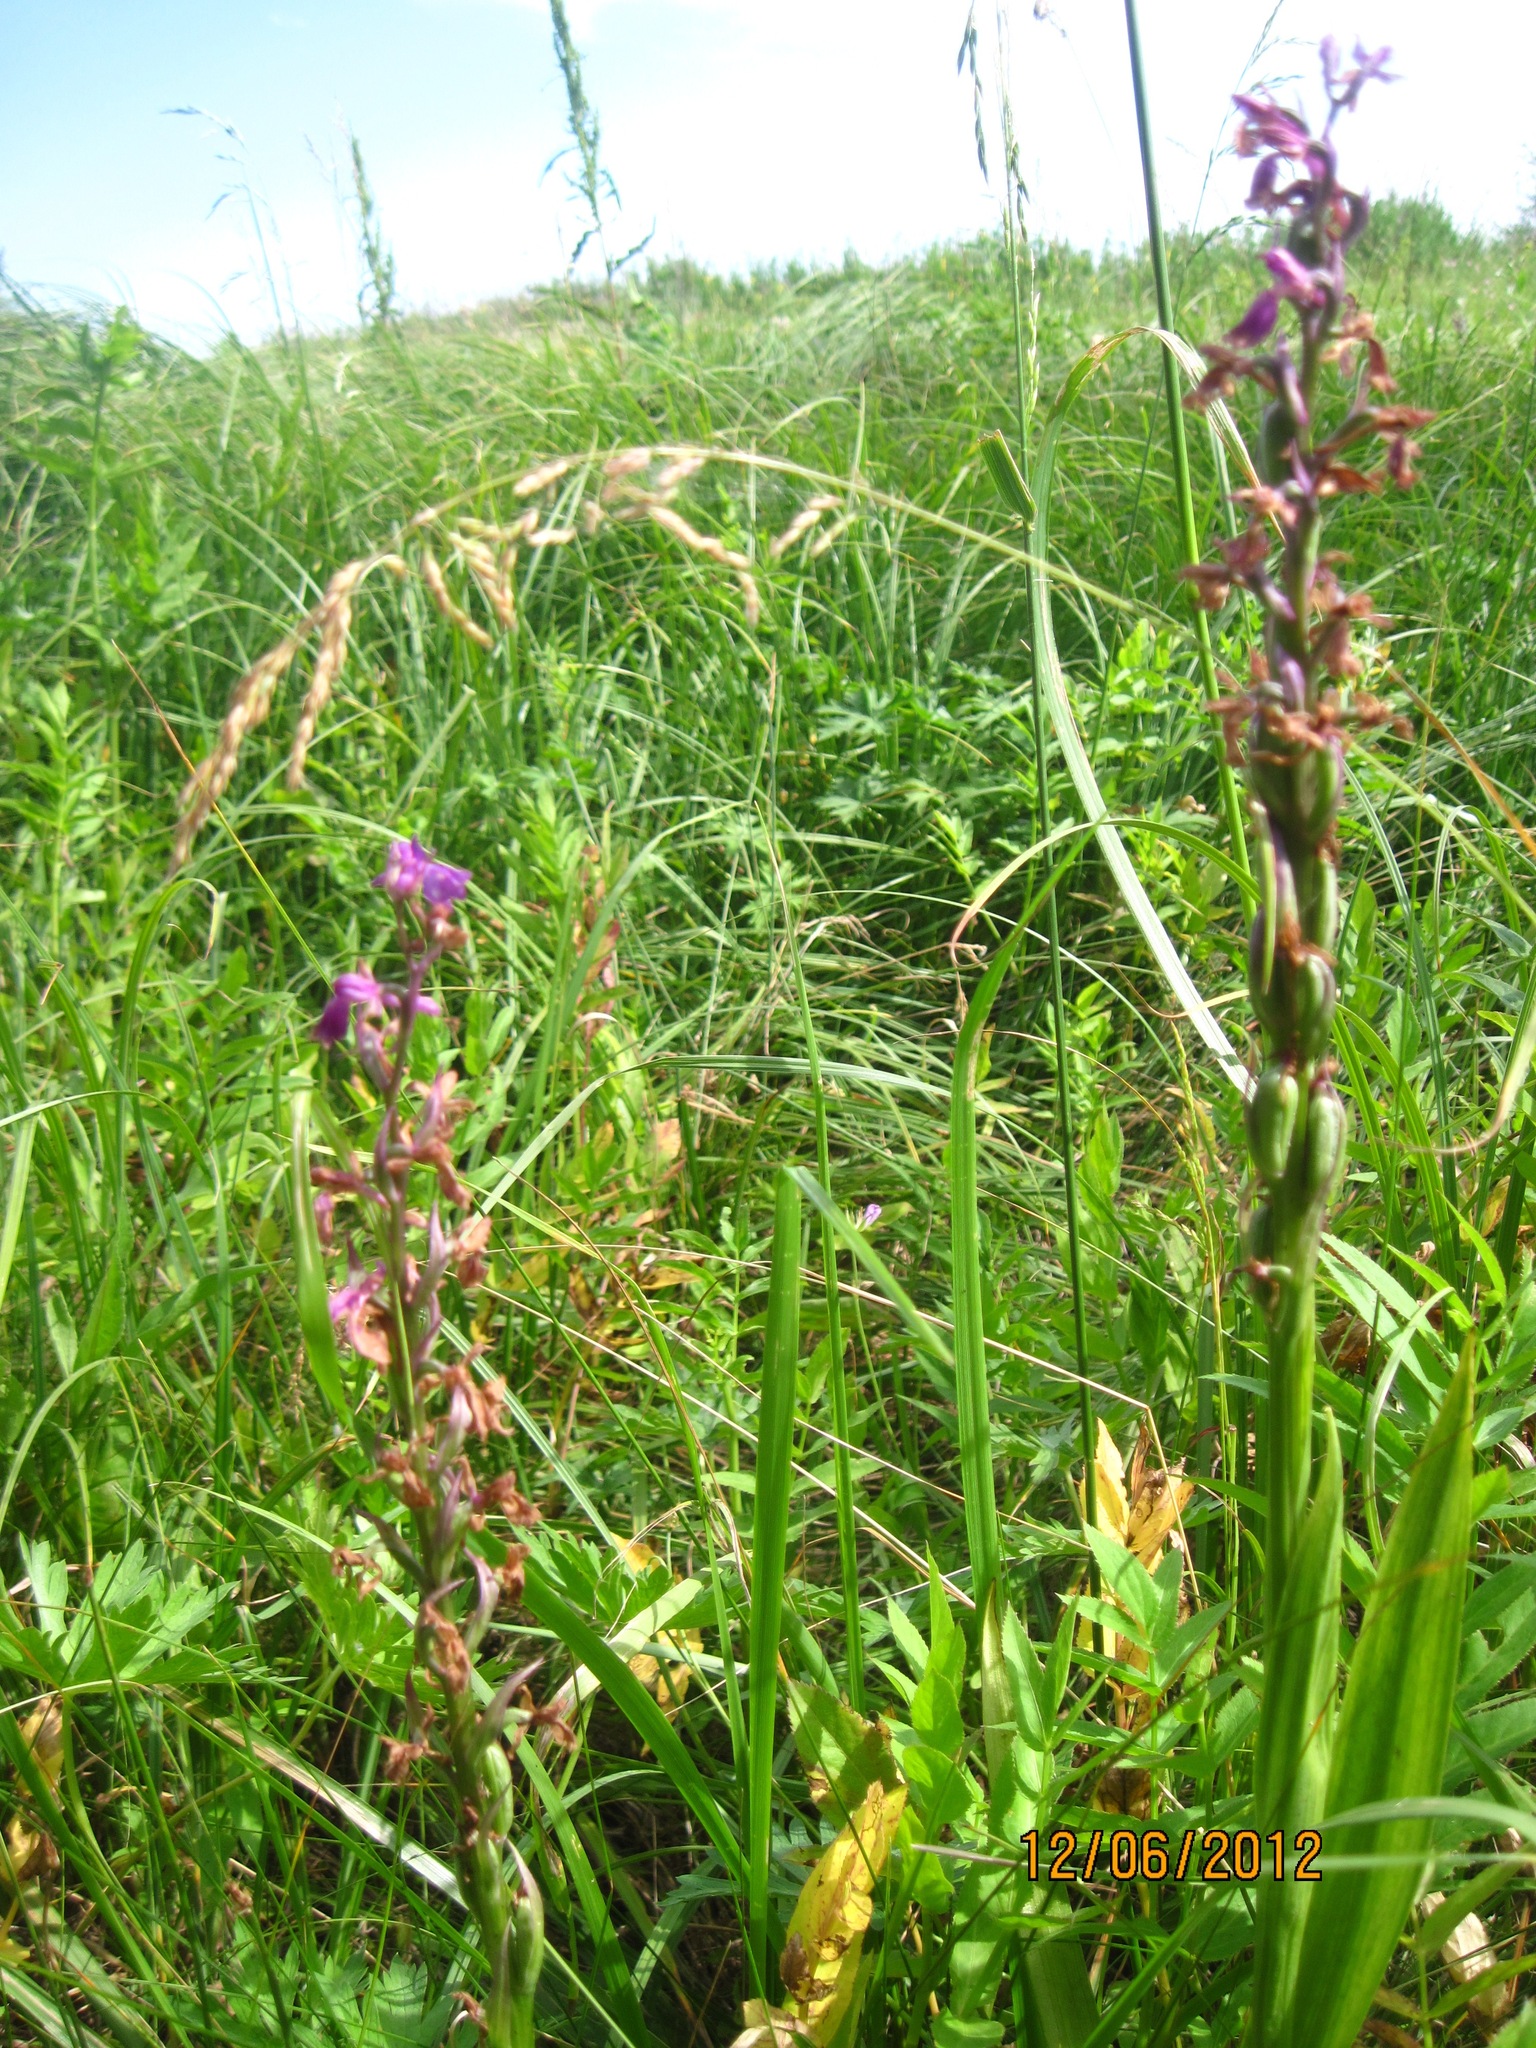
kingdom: Plantae
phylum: Tracheophyta
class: Liliopsida
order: Asparagales
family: Orchidaceae
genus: Anacamptis
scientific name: Anacamptis palustris
